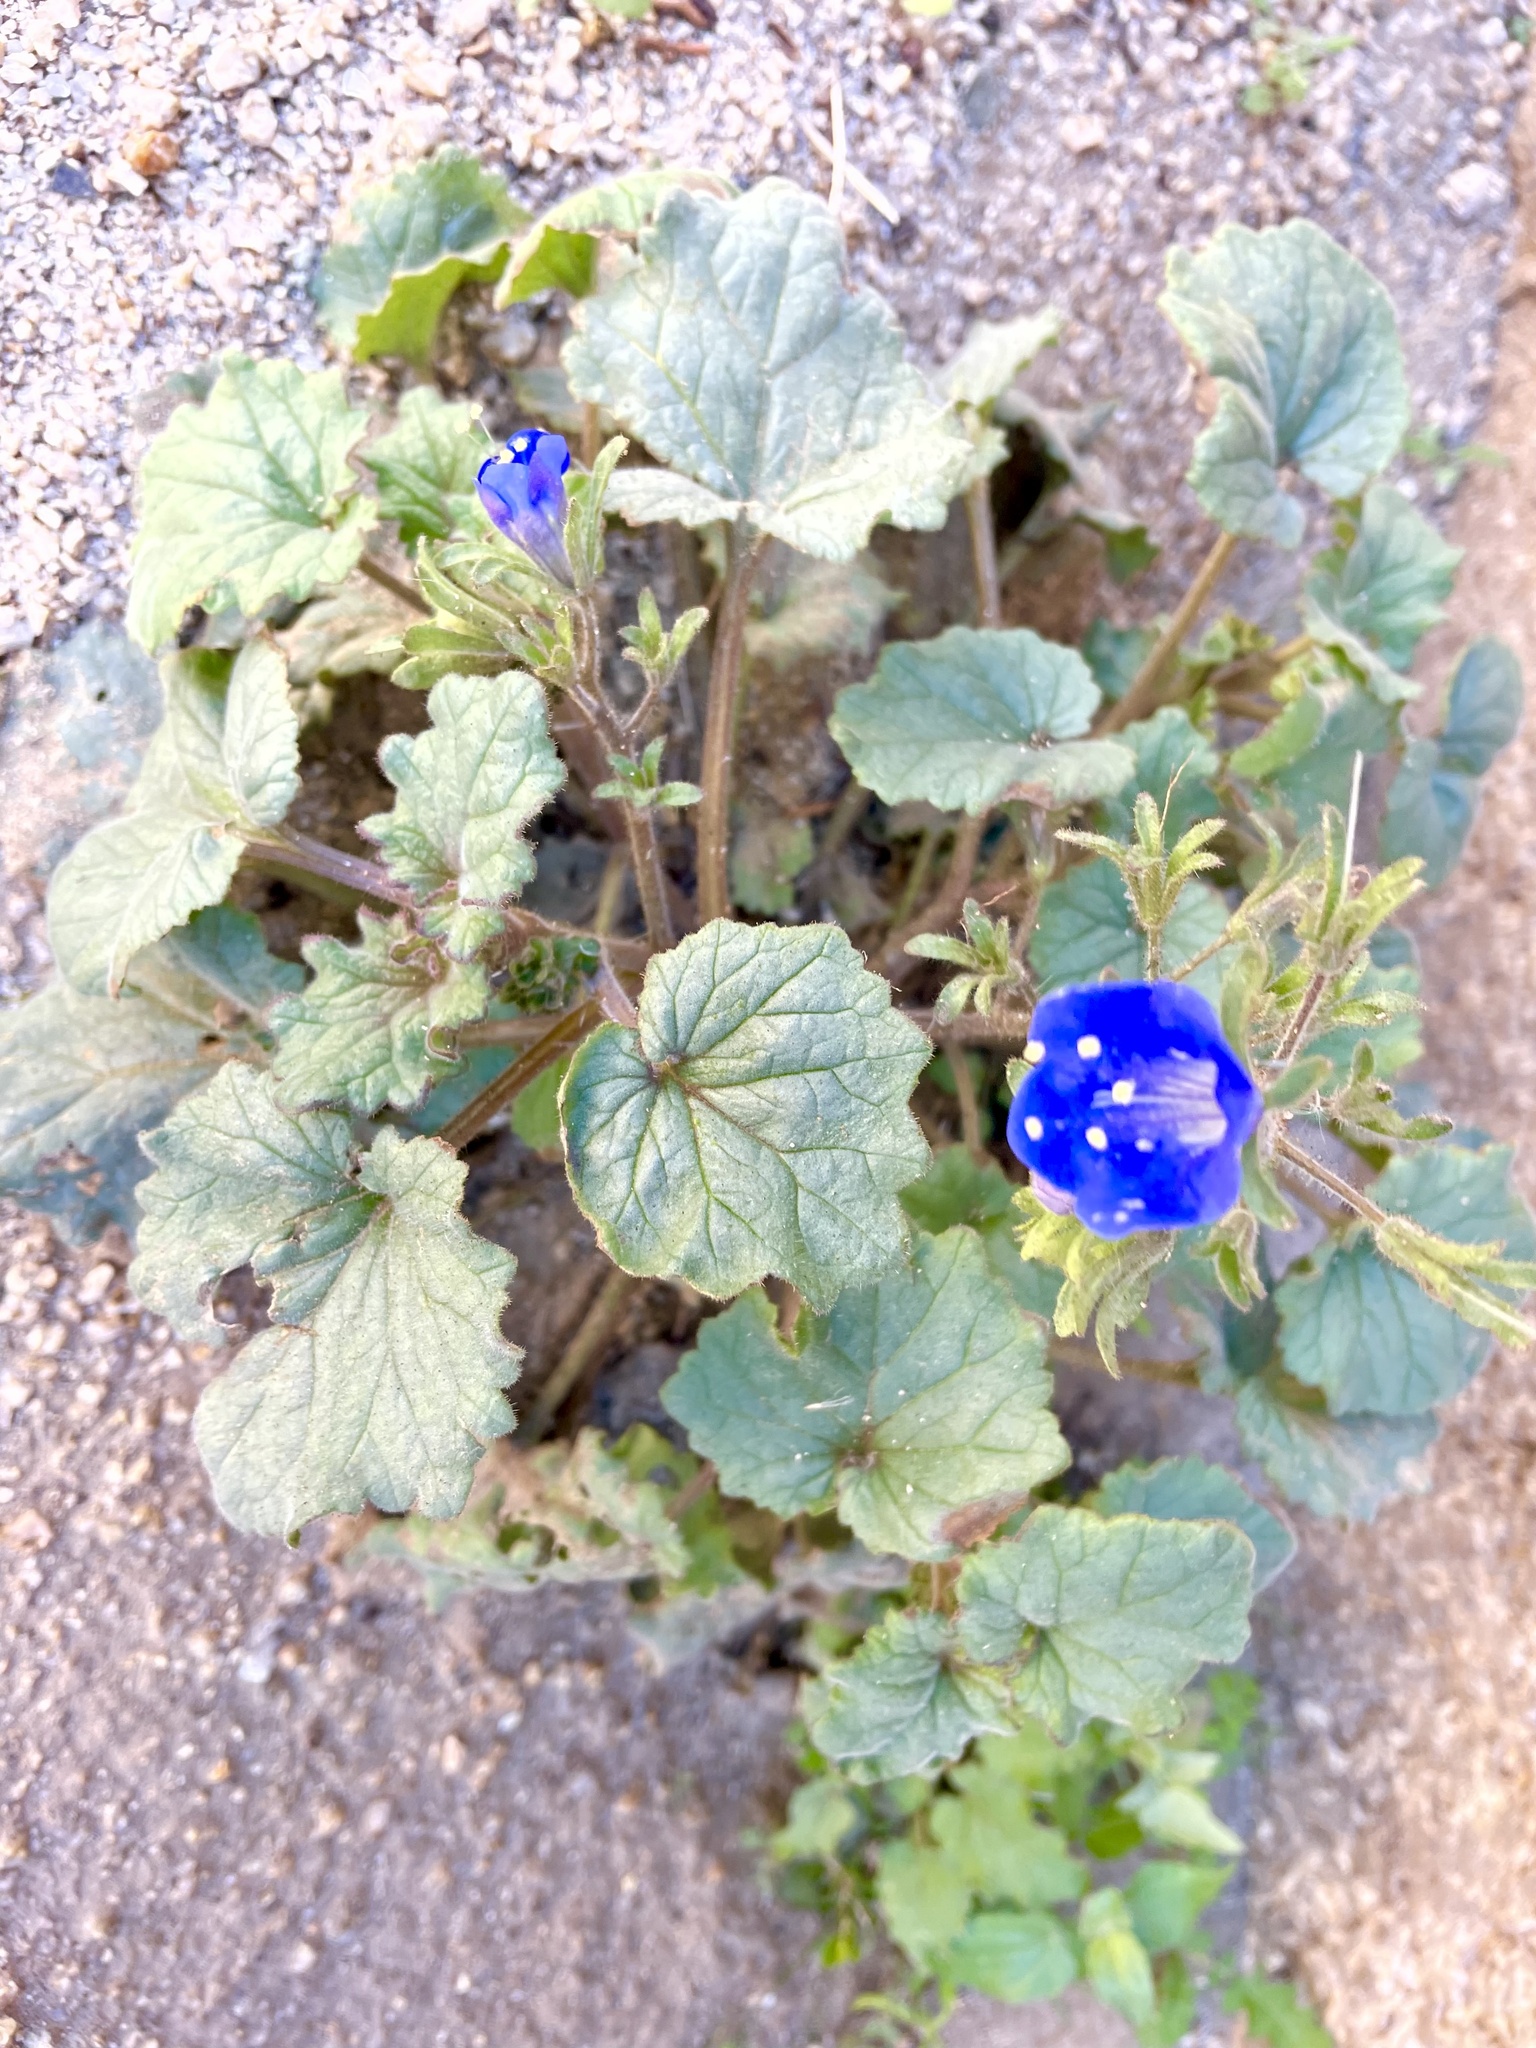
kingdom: Plantae
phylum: Tracheophyta
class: Magnoliopsida
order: Boraginales
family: Hydrophyllaceae
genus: Phacelia
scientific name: Phacelia campanularia
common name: California bluebell
